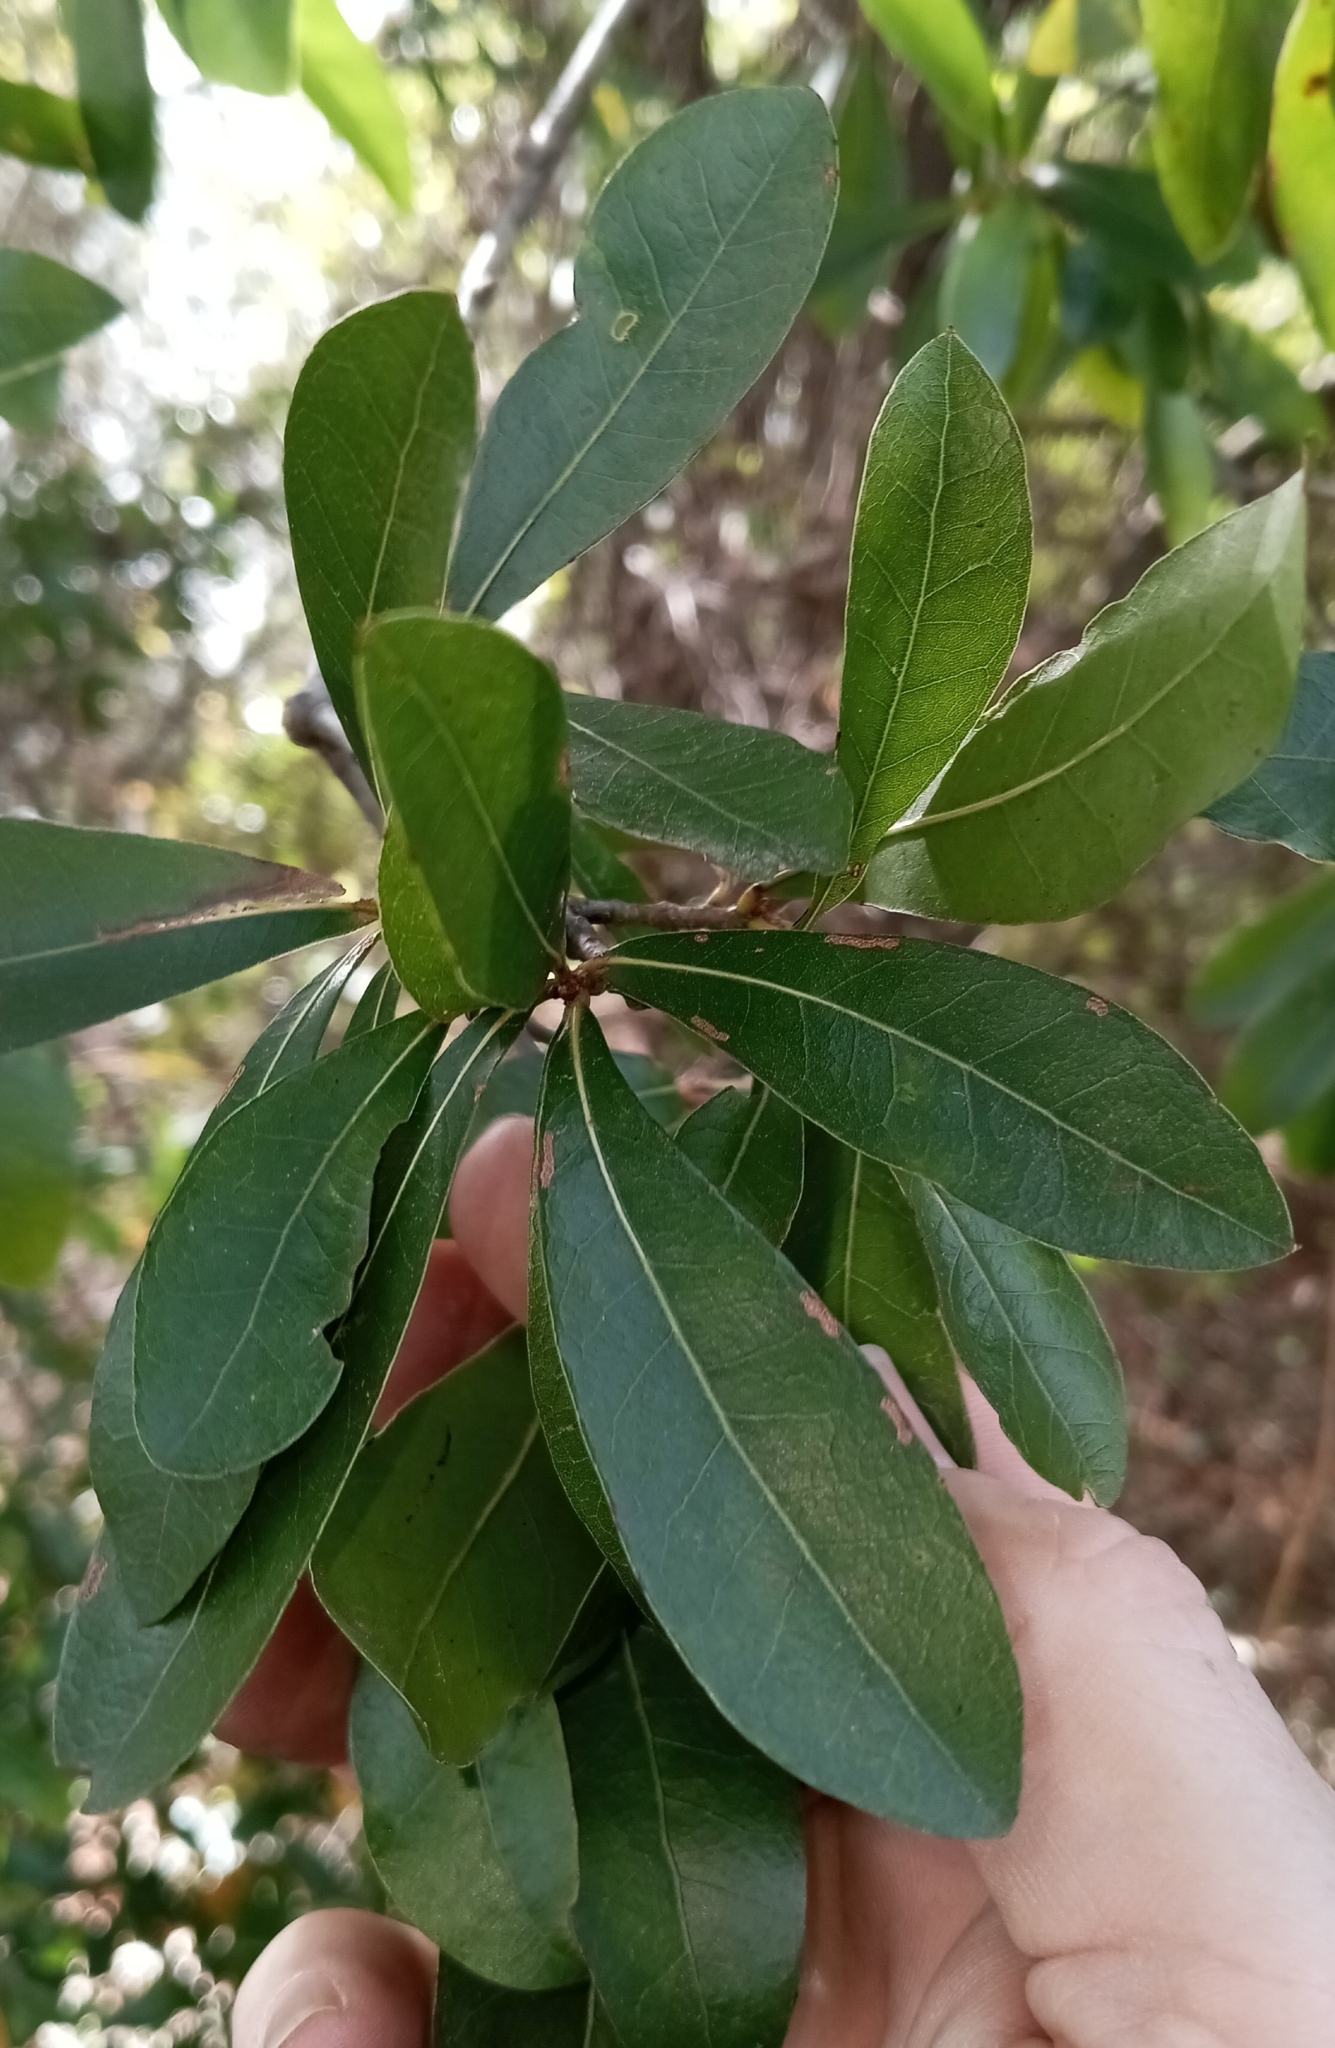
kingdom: Plantae
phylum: Tracheophyta
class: Magnoliopsida
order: Fagales
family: Fagaceae
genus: Quercus
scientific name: Quercus virginiana
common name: Southern live oak
